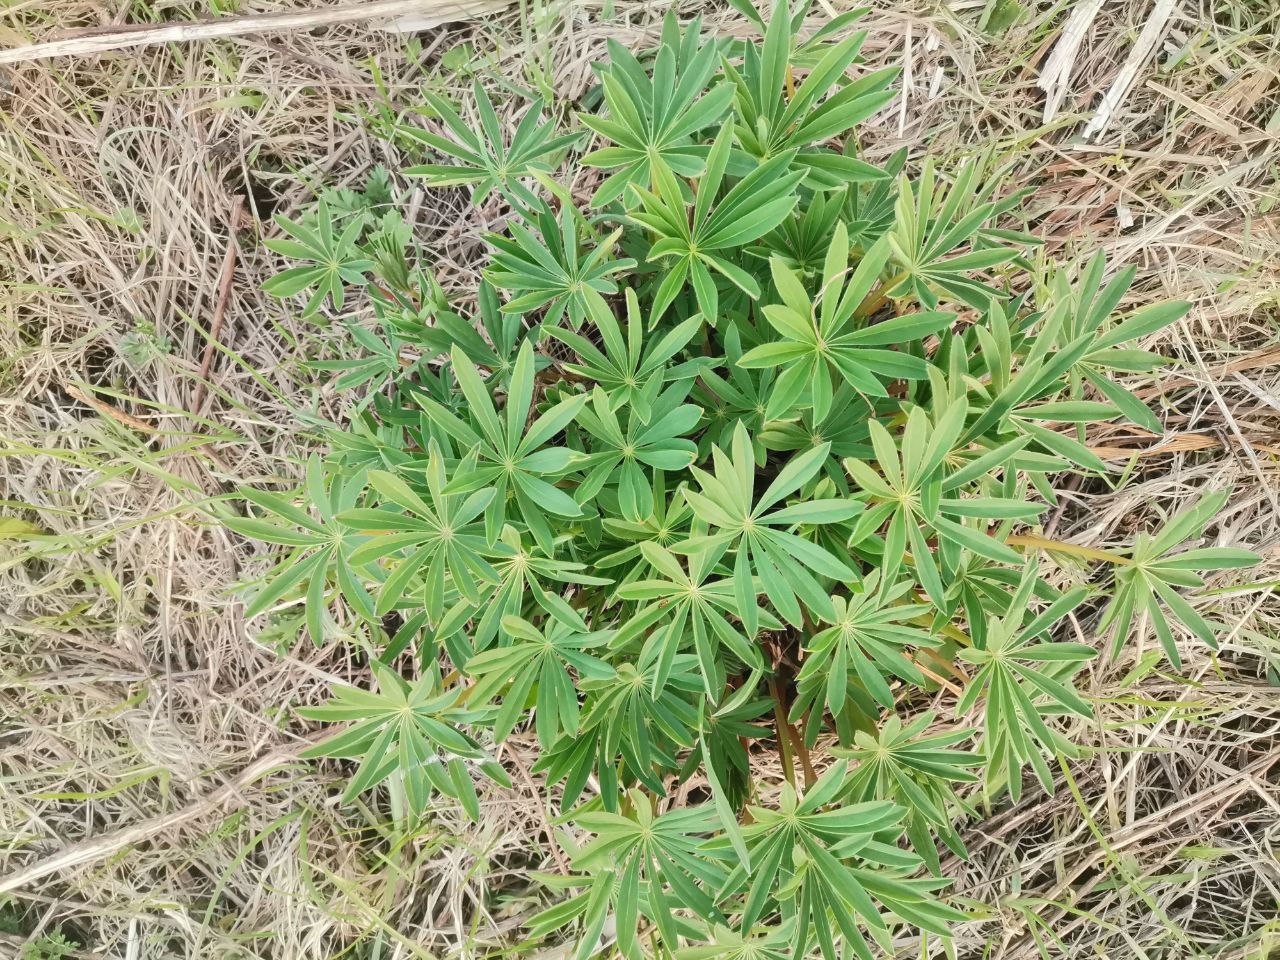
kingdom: Plantae
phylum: Tracheophyta
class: Magnoliopsida
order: Fabales
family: Fabaceae
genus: Lupinus
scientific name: Lupinus polyphyllus
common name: Garden lupin
